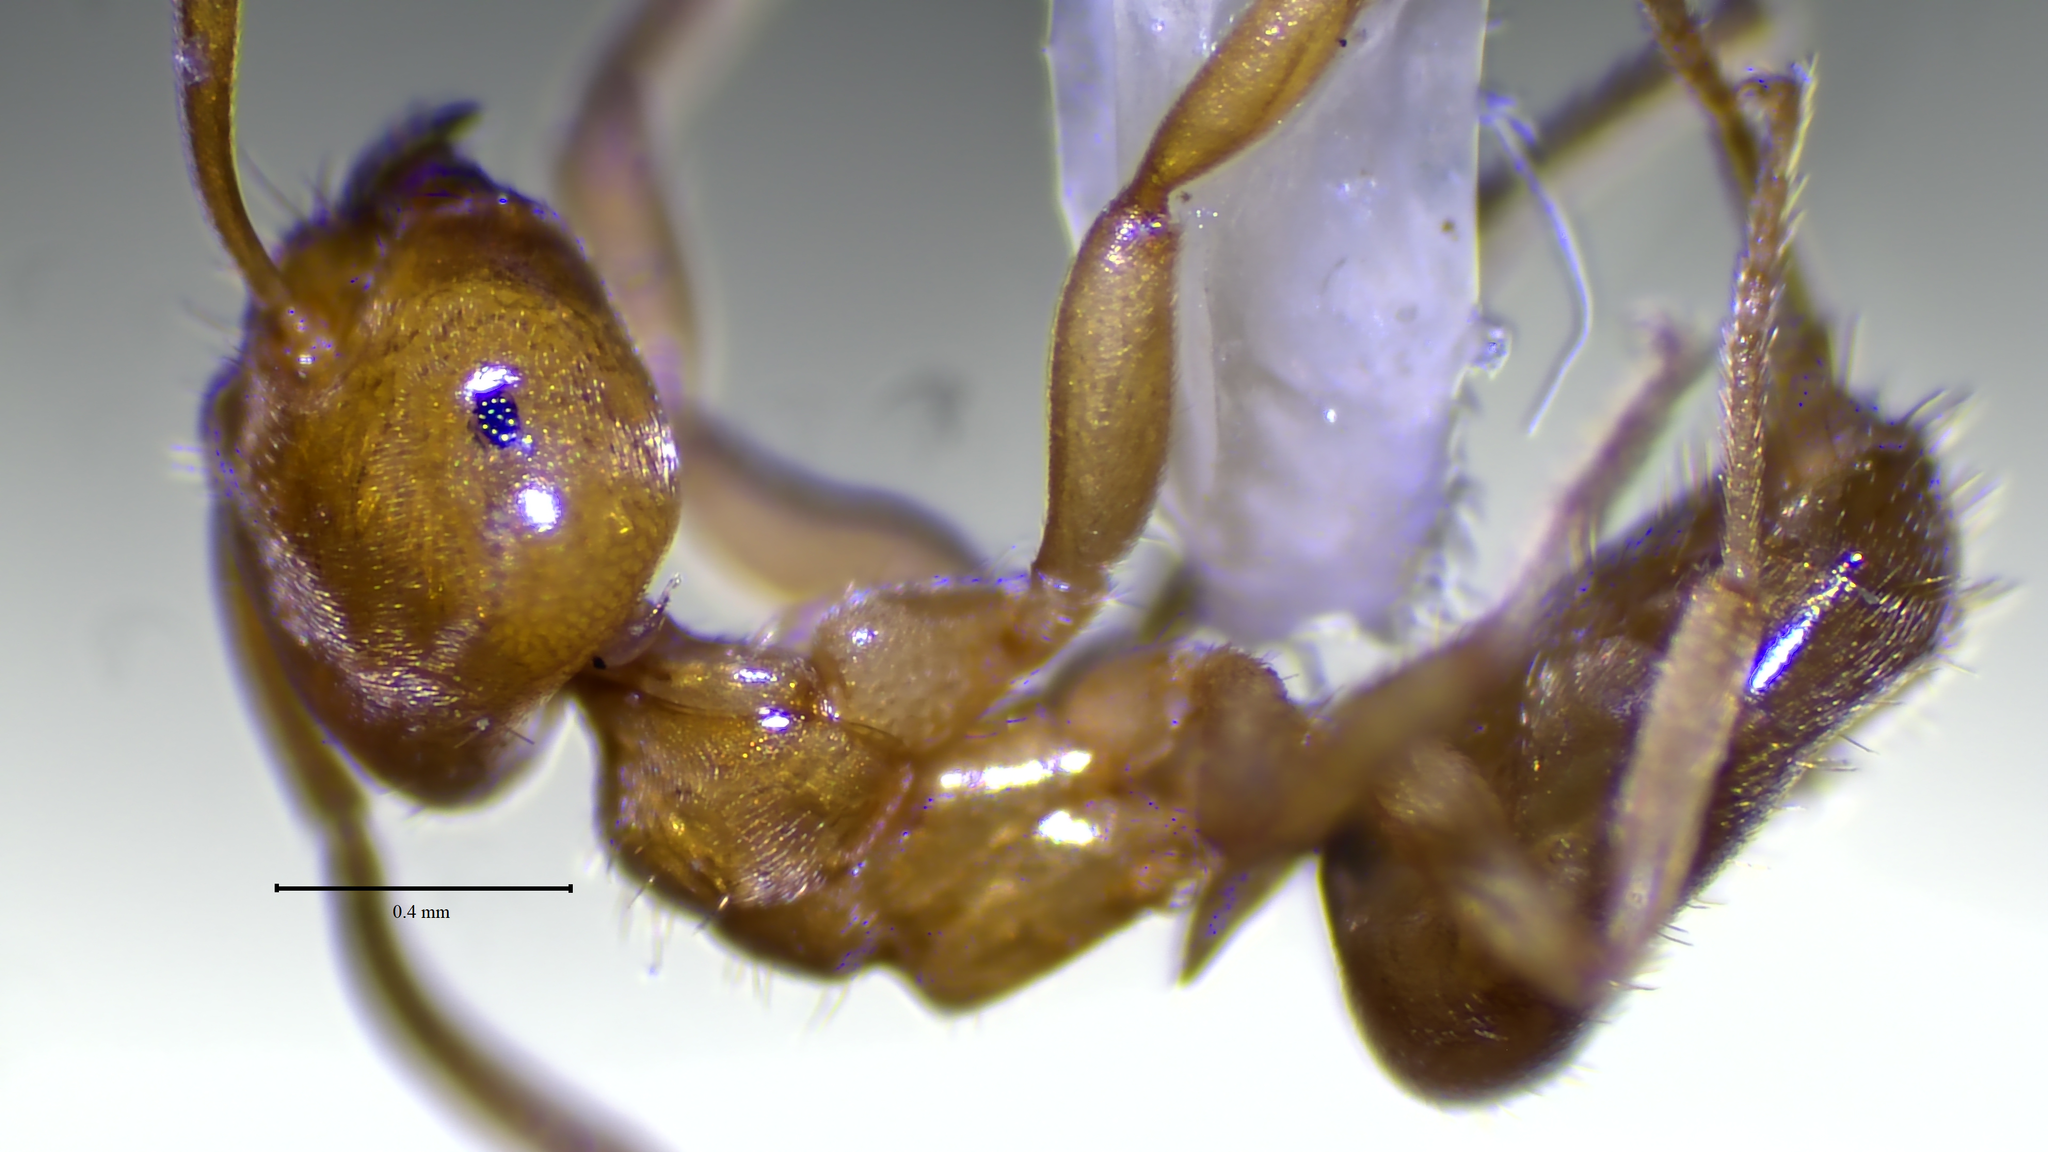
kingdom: Animalia
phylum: Arthropoda
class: Insecta
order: Hymenoptera
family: Formicidae
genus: Lasius
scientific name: Lasius
